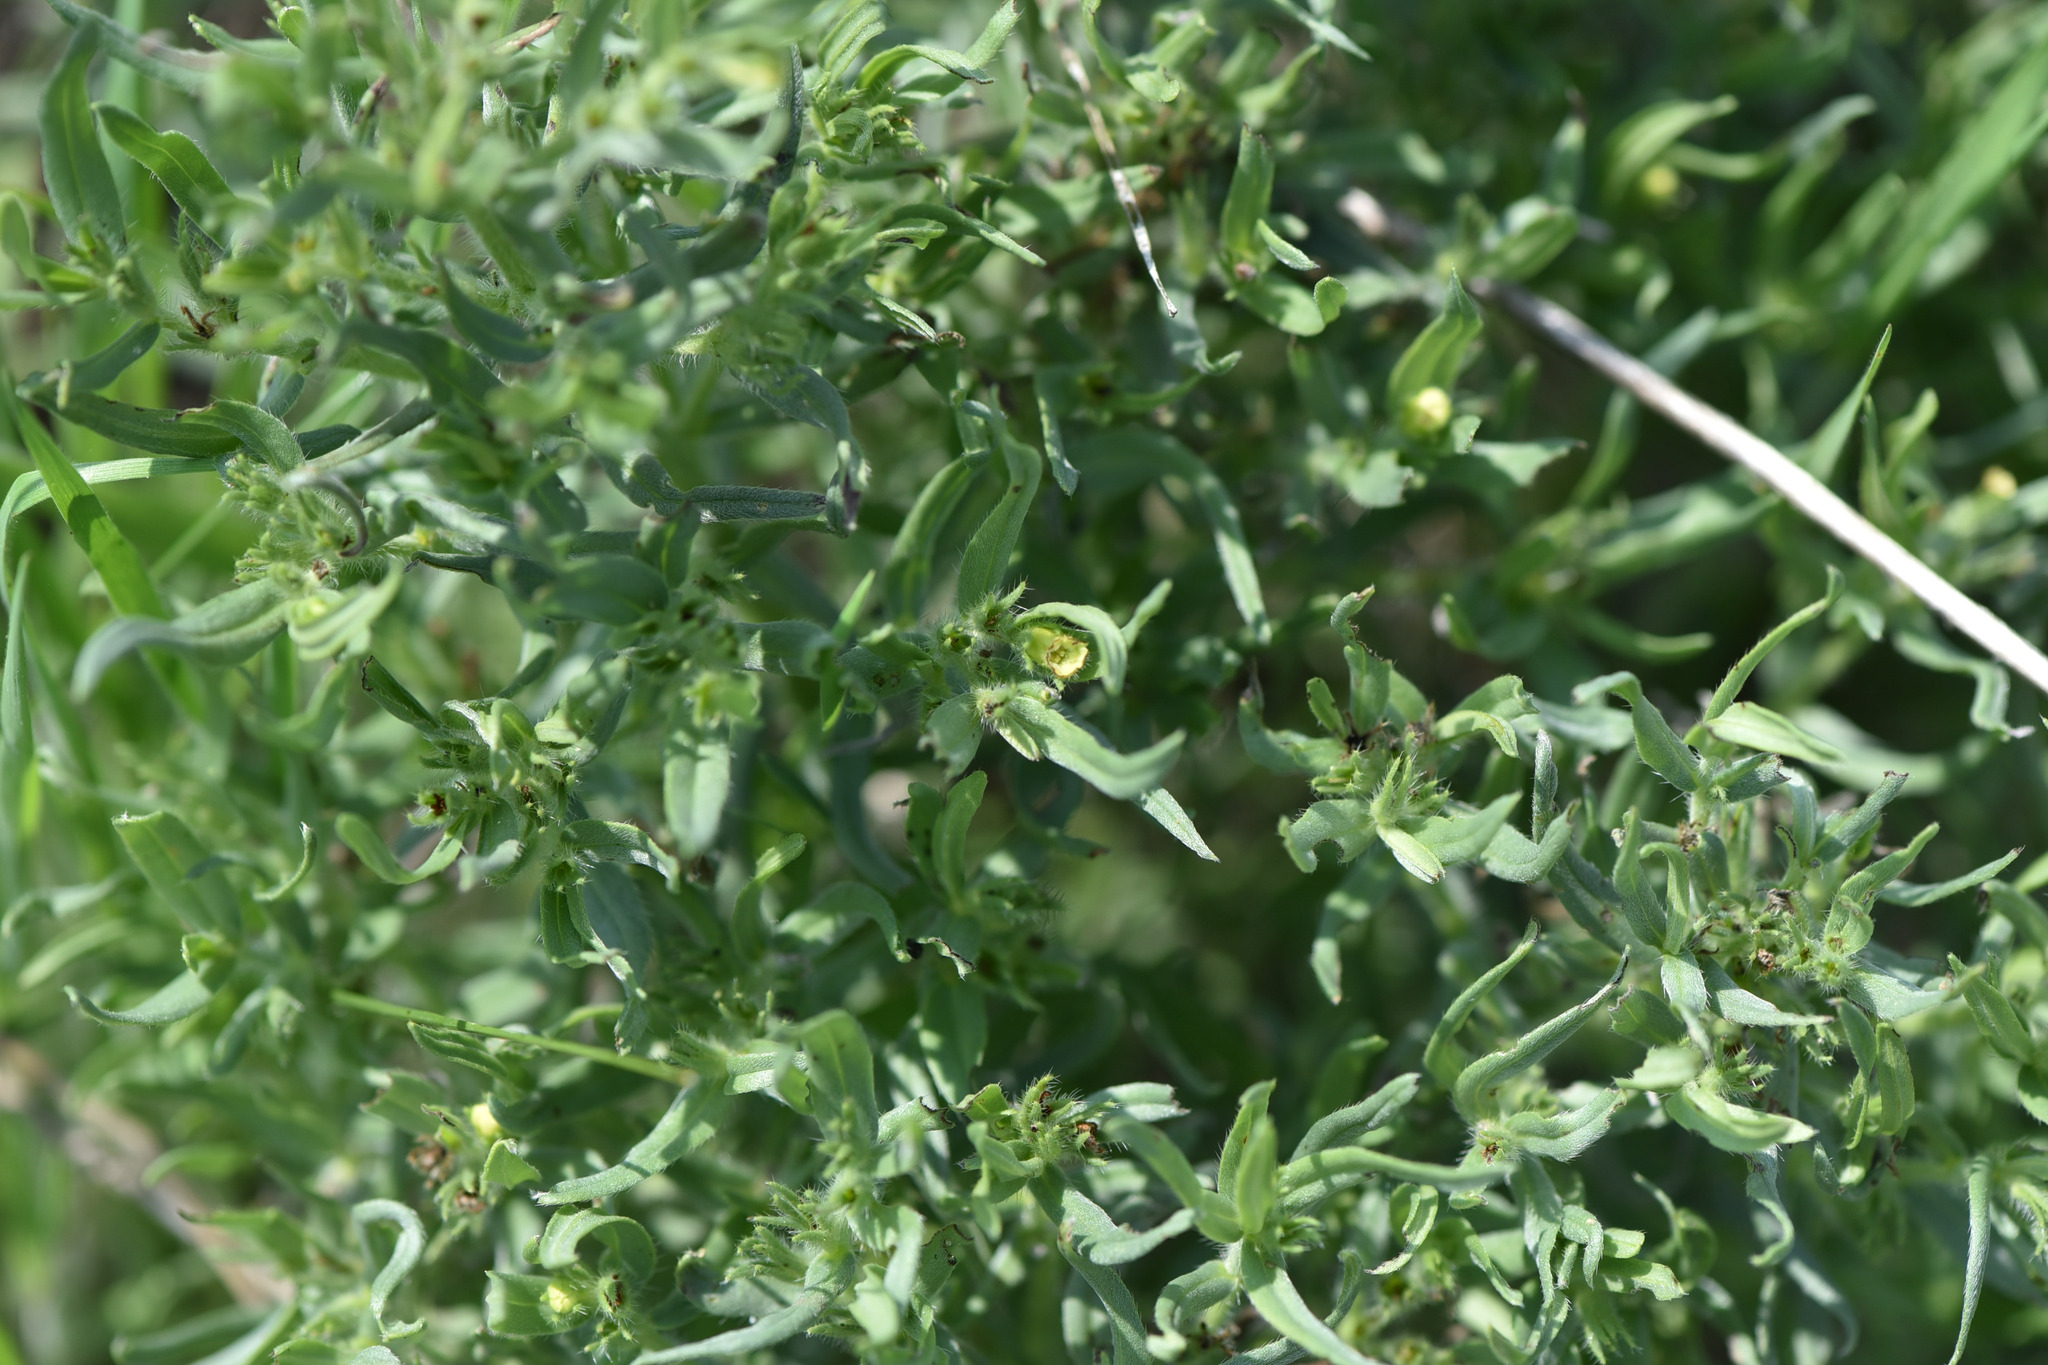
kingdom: Plantae
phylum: Tracheophyta
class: Magnoliopsida
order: Boraginales
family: Boraginaceae
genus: Lithospermum
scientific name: Lithospermum ruderale
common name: Western gromwell
